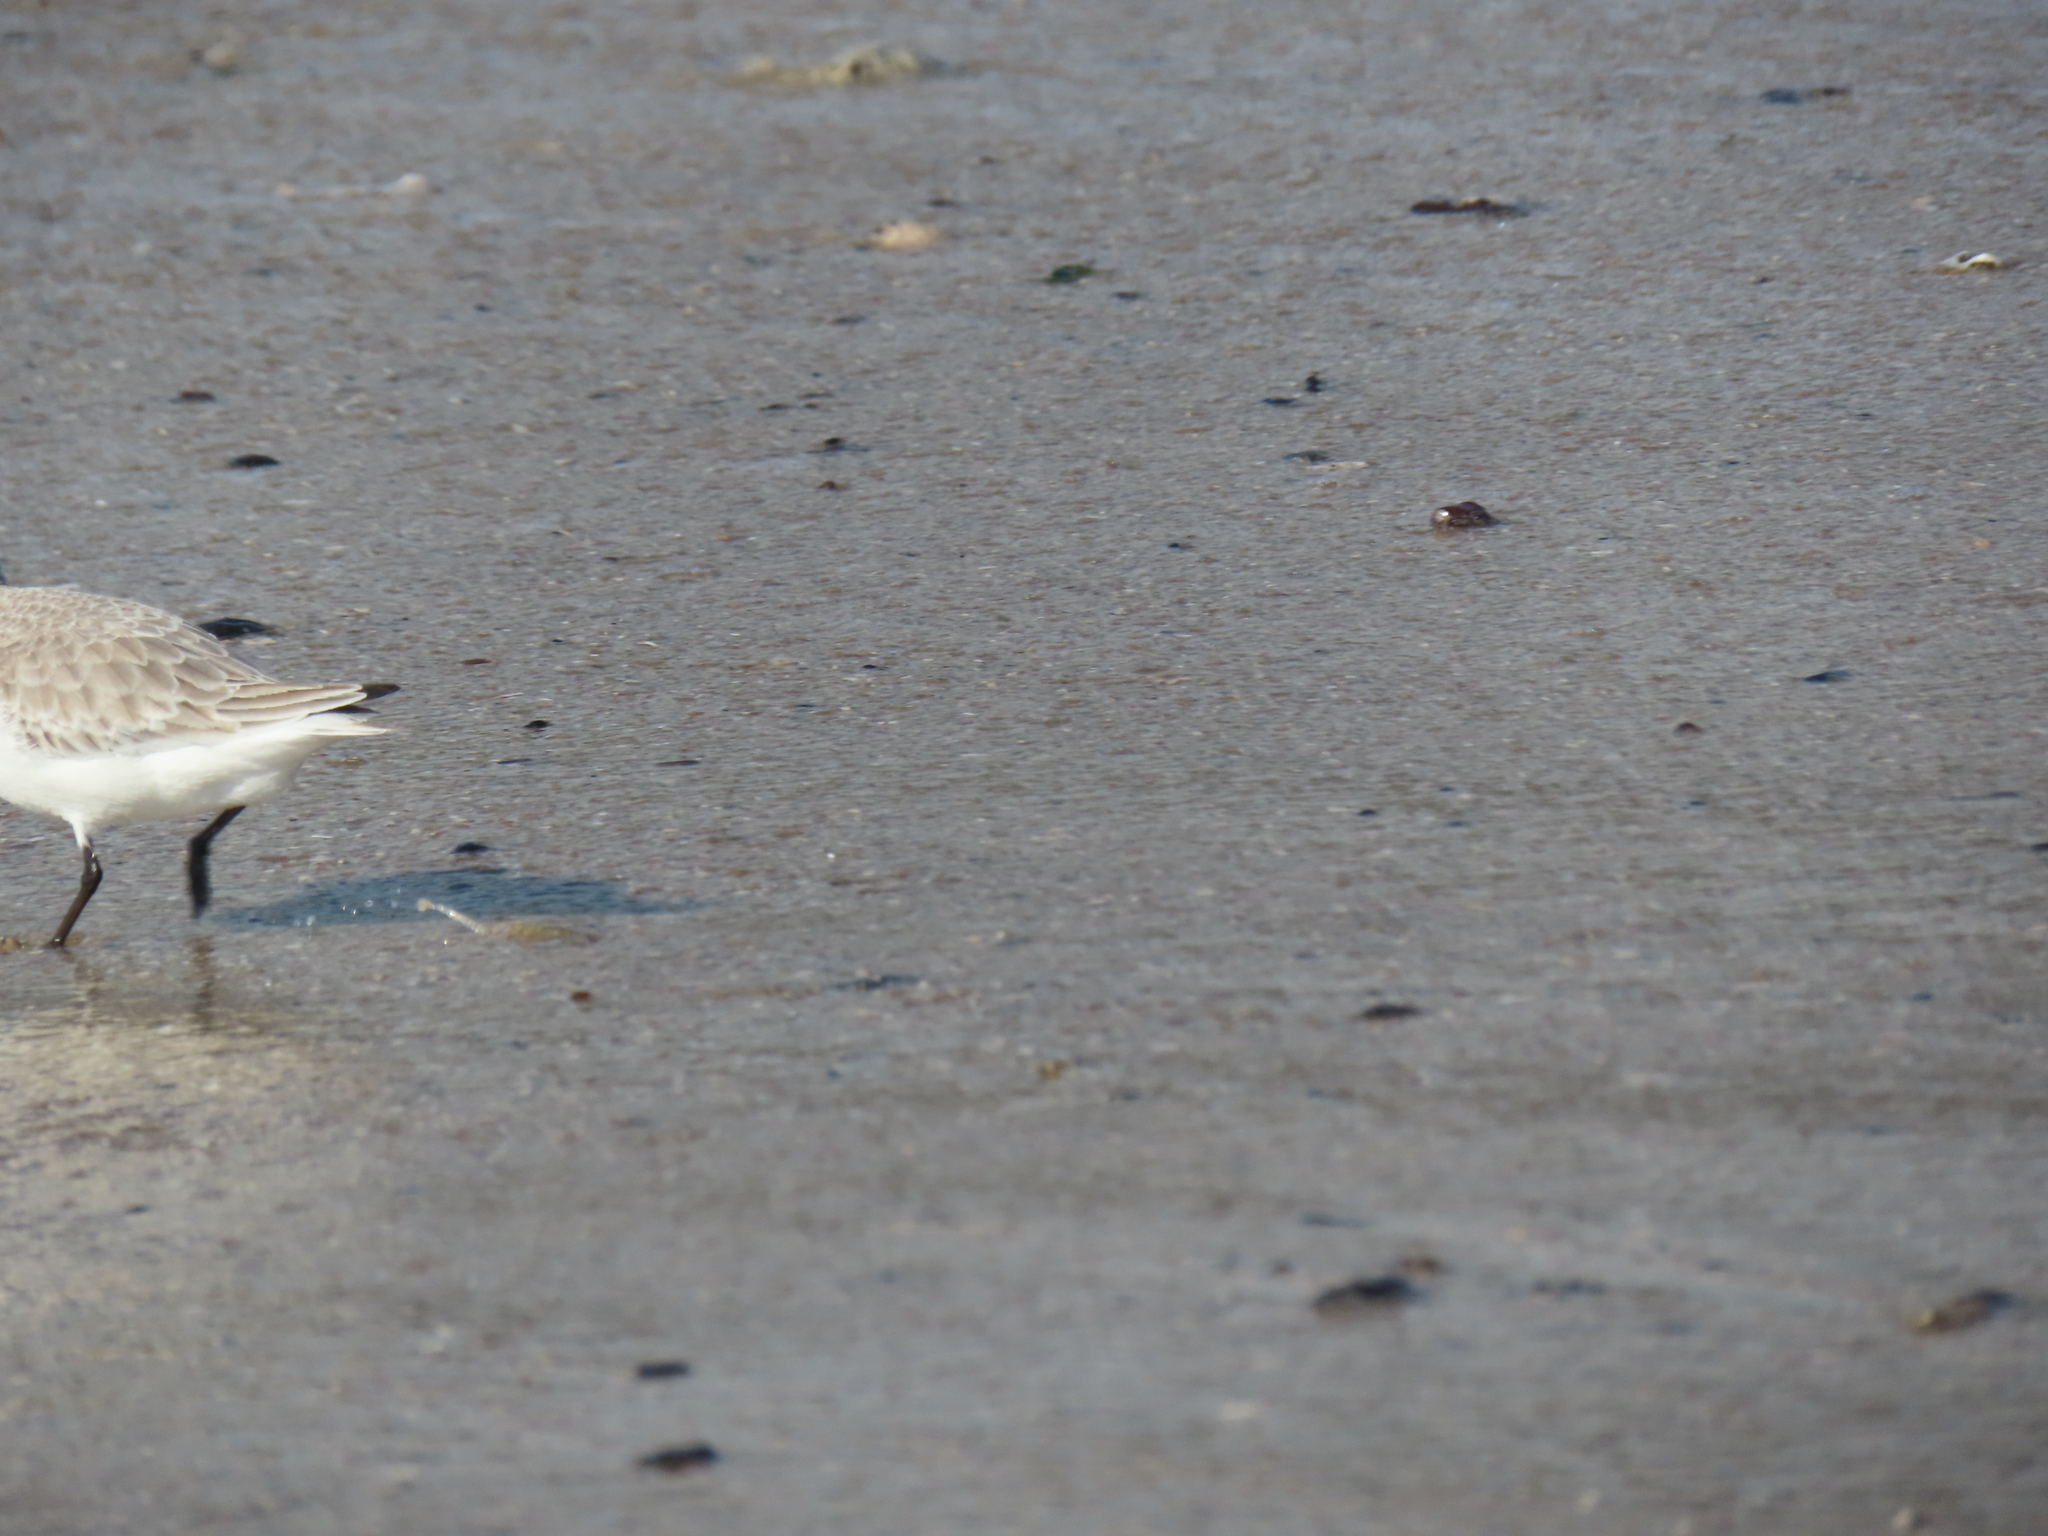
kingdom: Animalia
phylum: Chordata
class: Aves
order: Charadriiformes
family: Scolopacidae
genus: Calidris
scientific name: Calidris alba
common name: Sanderling
